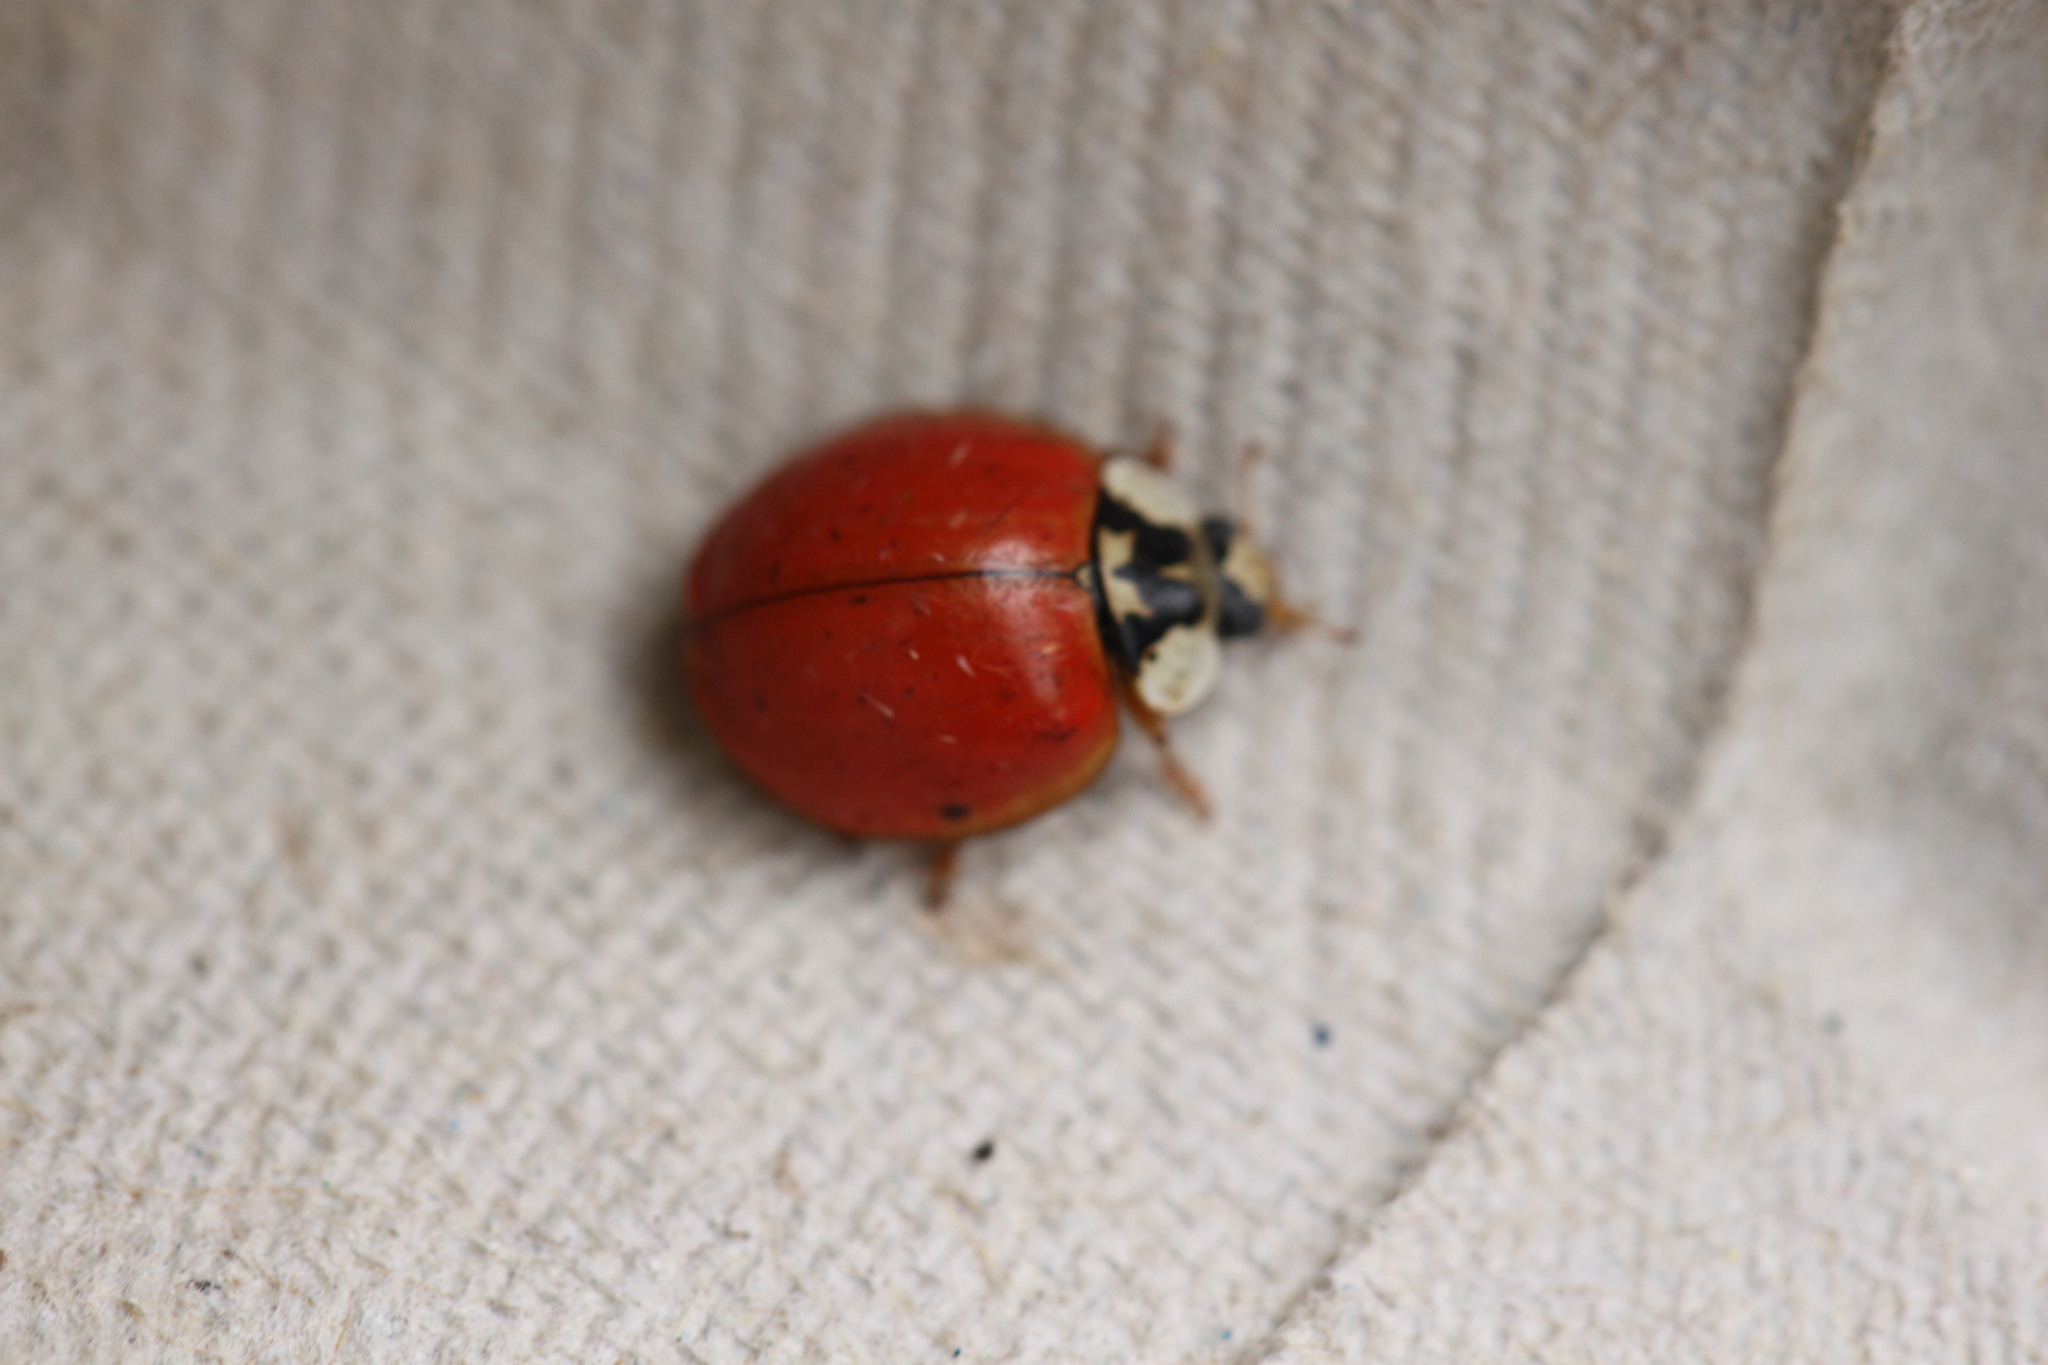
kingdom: Animalia
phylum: Arthropoda
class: Insecta
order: Coleoptera
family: Coccinellidae
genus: Harmonia
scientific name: Harmonia axyridis
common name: Harlequin ladybird
